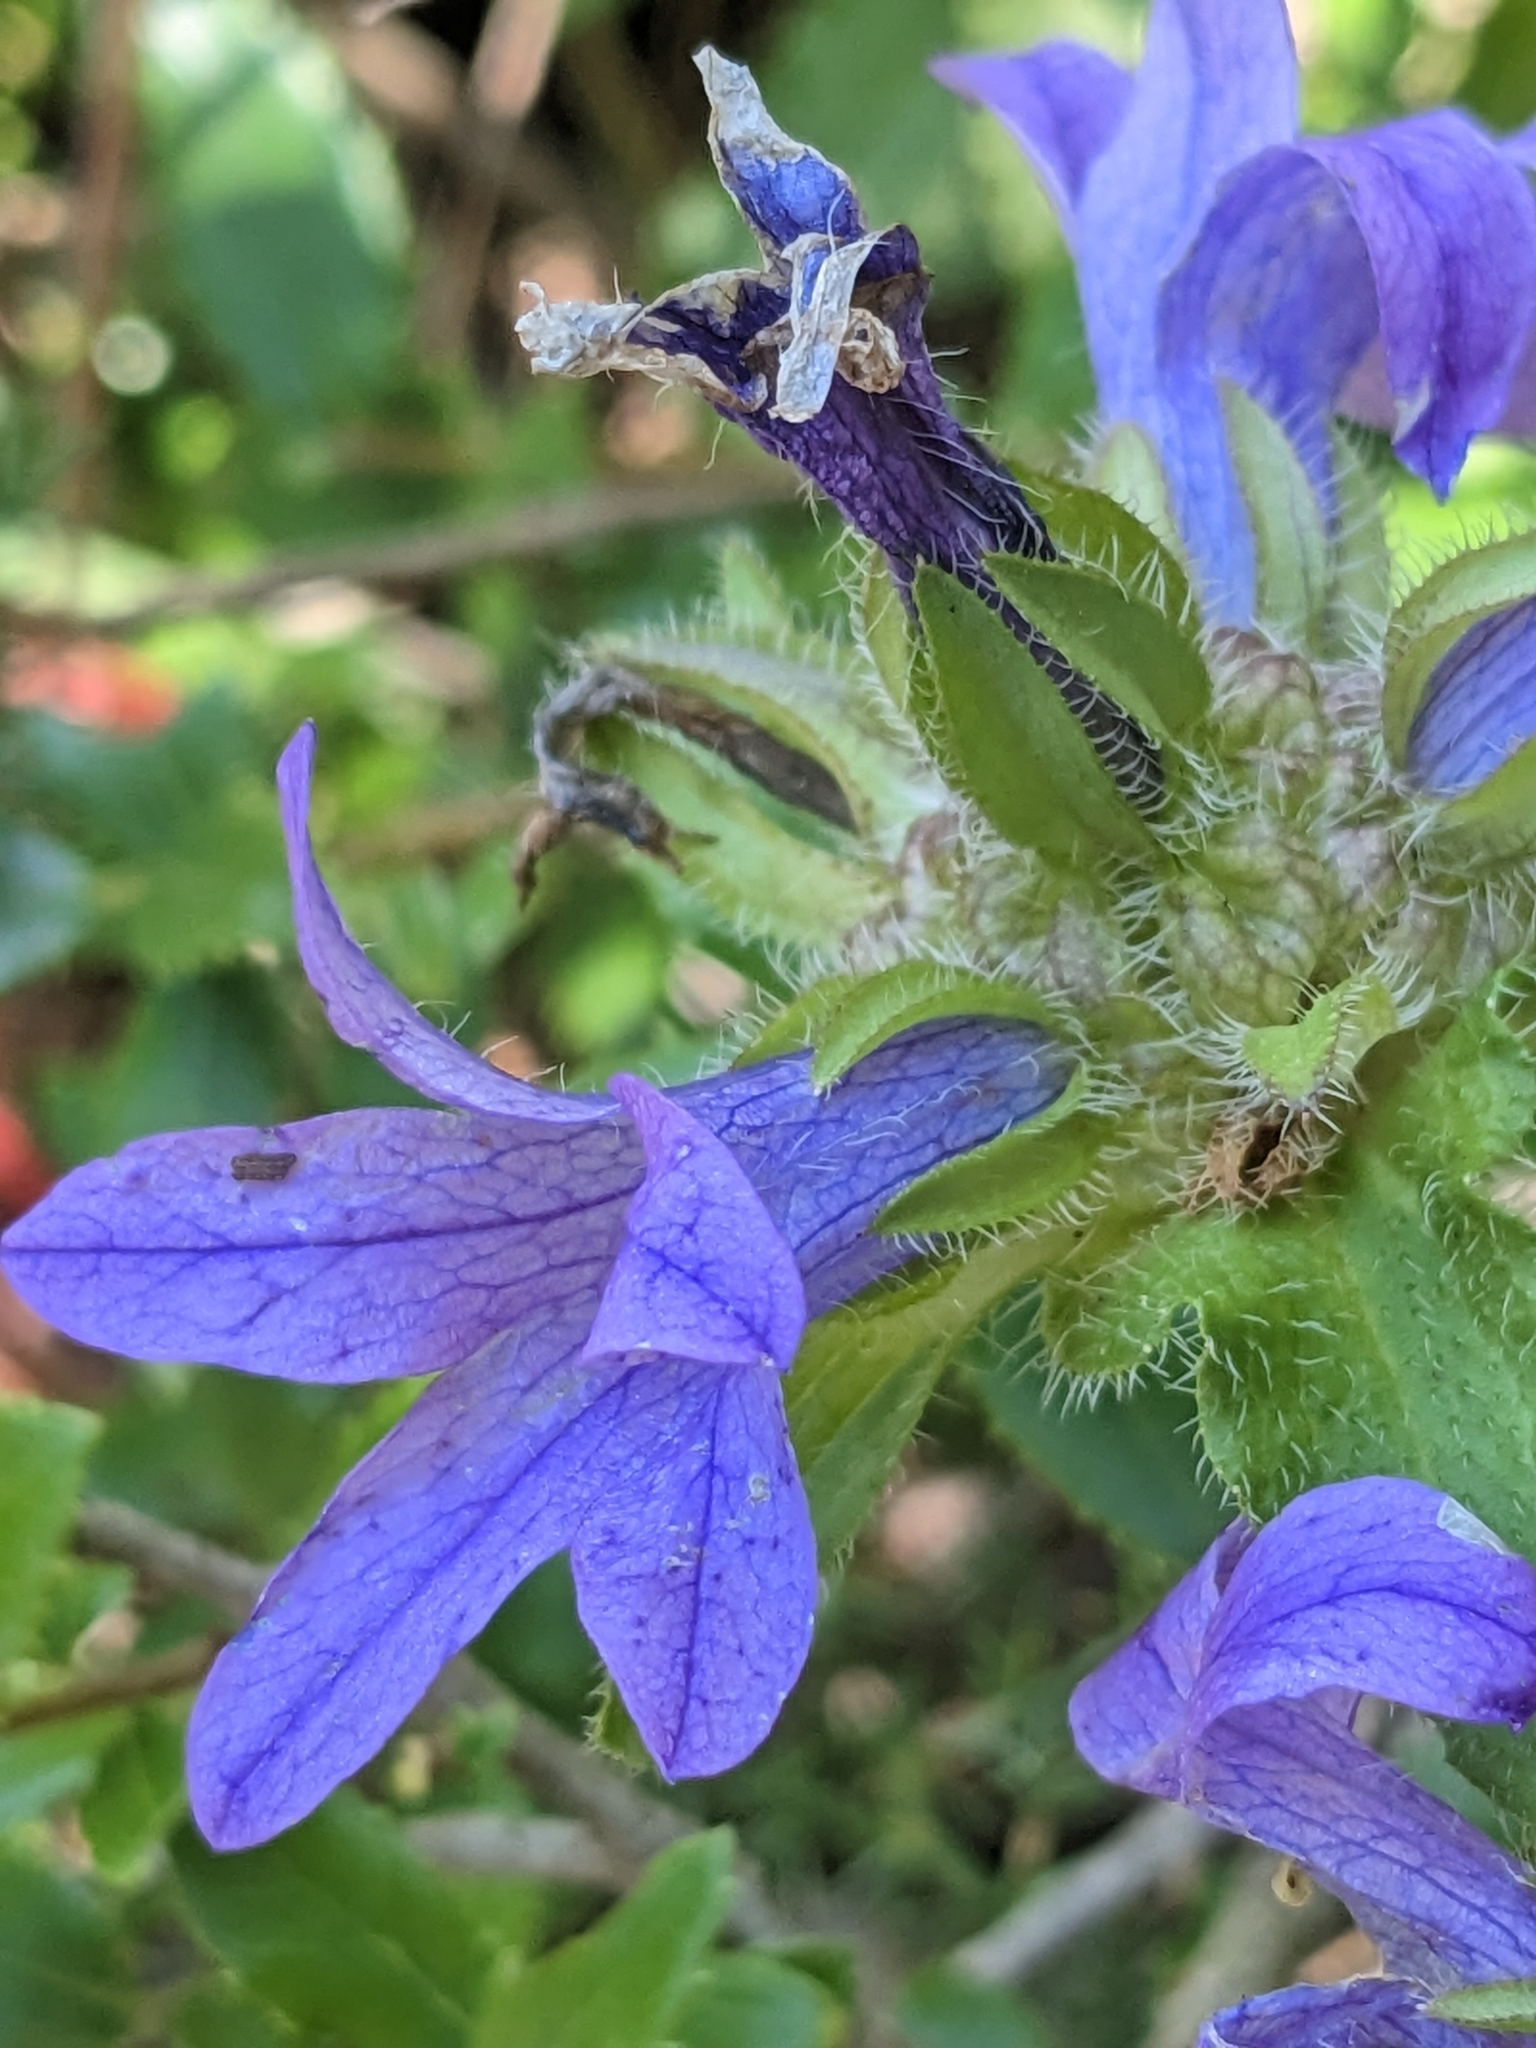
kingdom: Plantae
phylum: Tracheophyta
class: Magnoliopsida
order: Asterales
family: Campanulaceae
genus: Campanula
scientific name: Campanula lingulata
